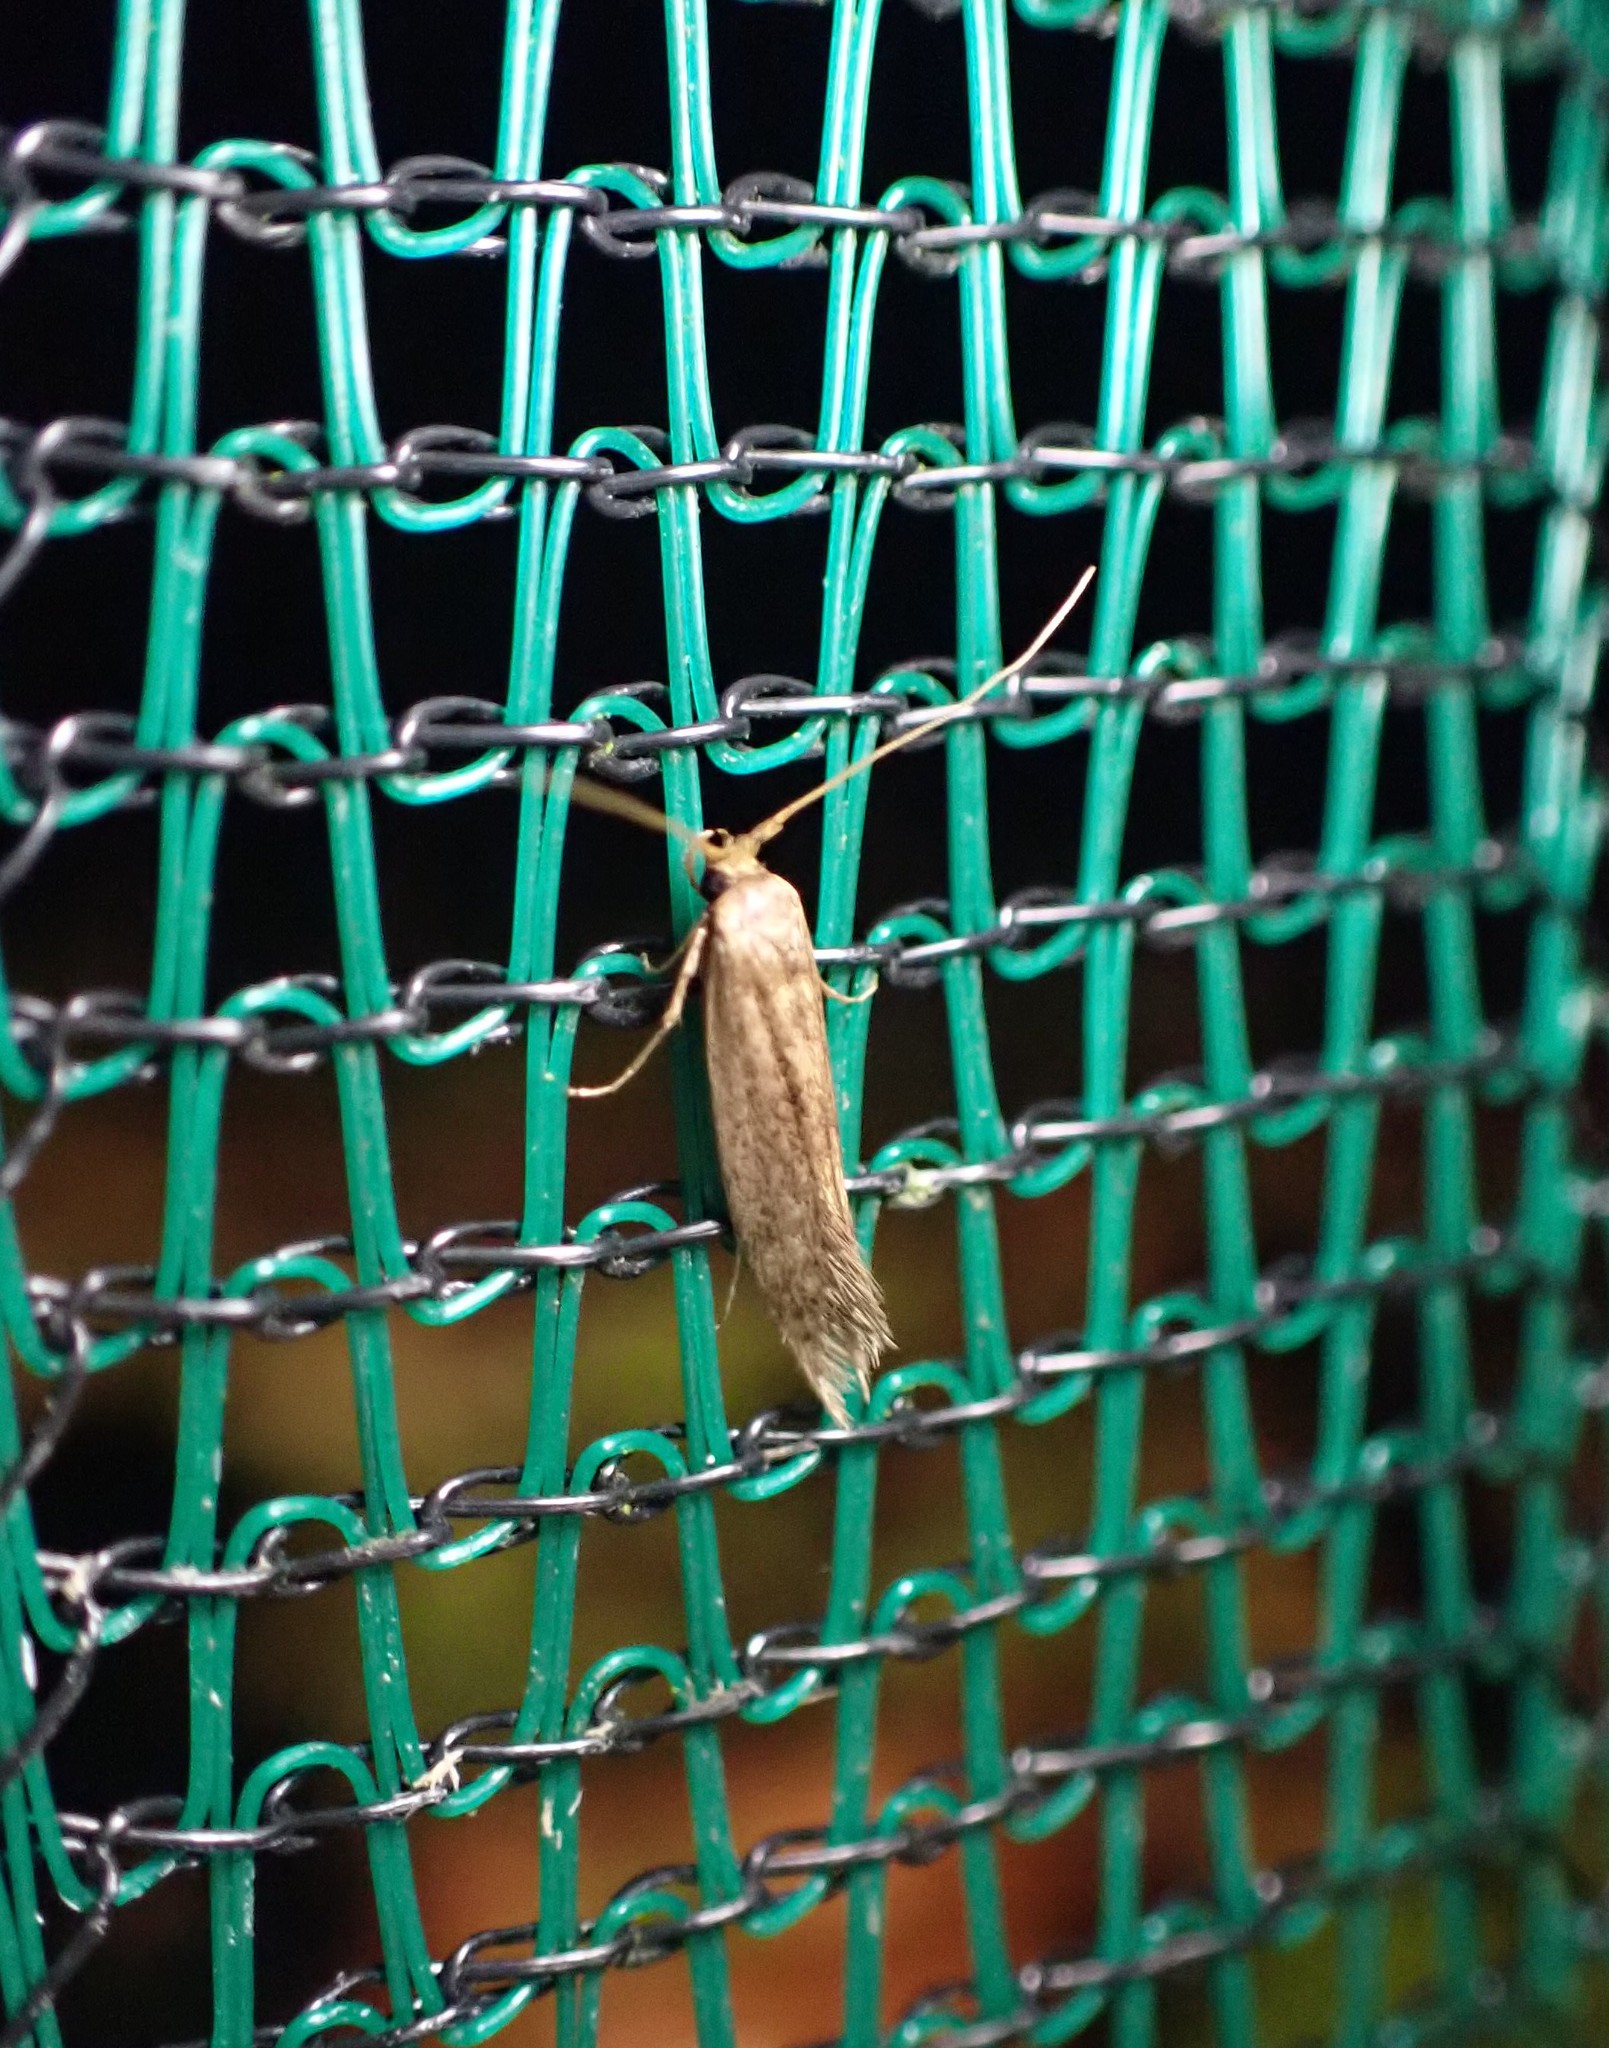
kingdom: Animalia
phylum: Arthropoda
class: Insecta
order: Lepidoptera
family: Tineidae
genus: Opogona
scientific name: Opogona omoscopa
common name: Moth
